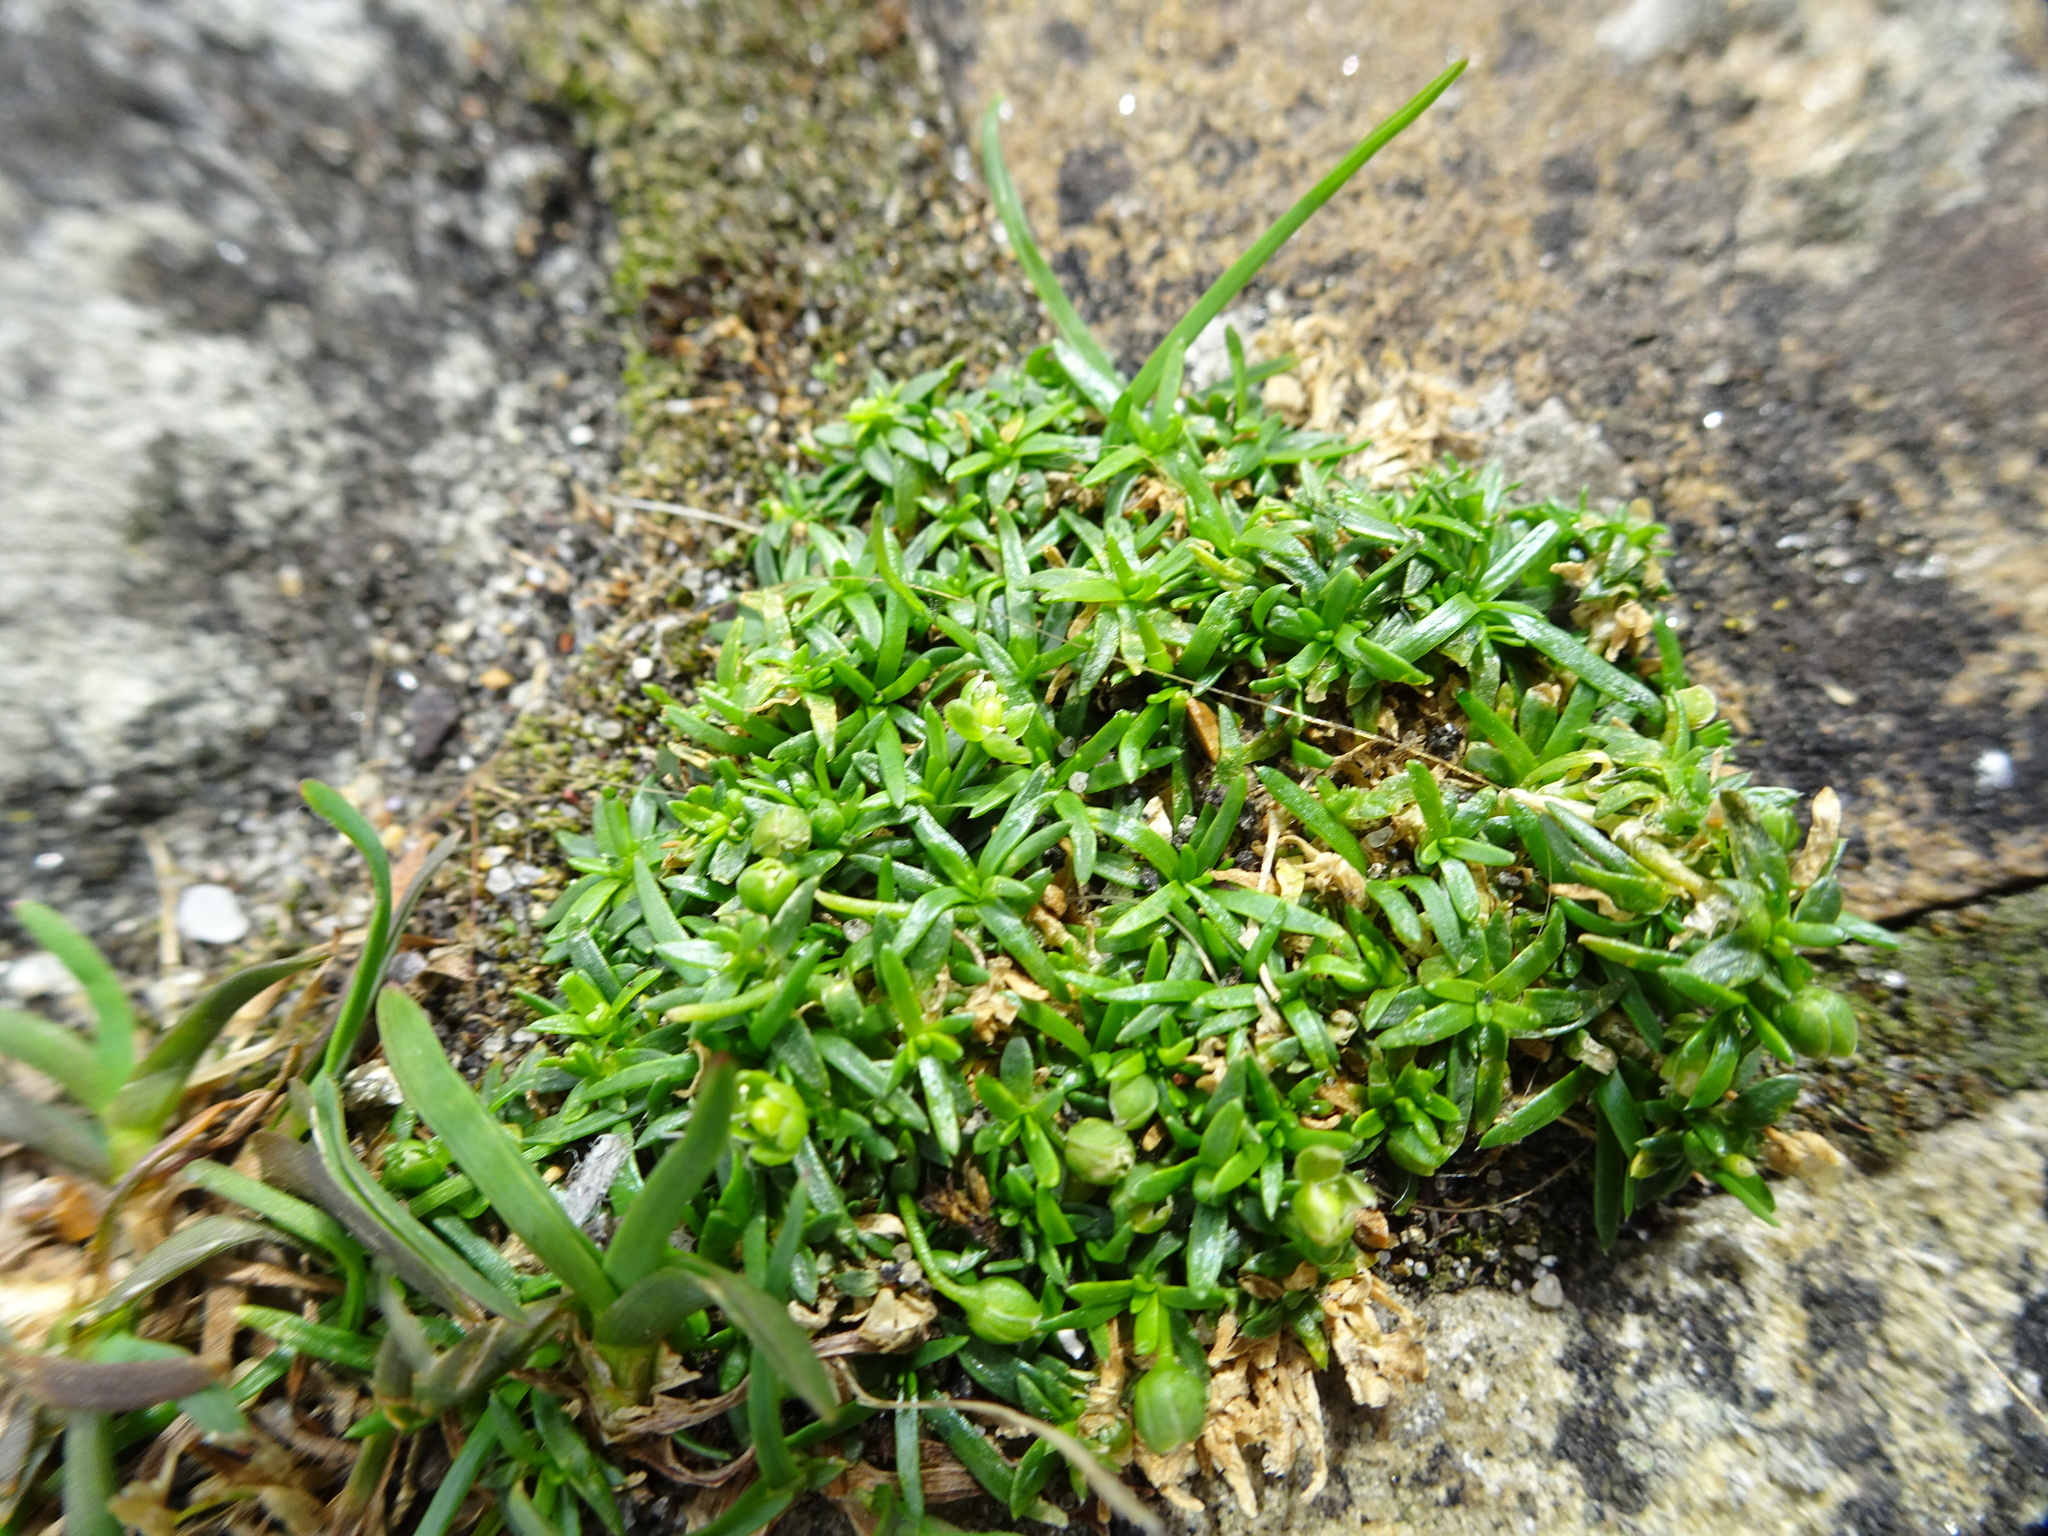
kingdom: Plantae
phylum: Tracheophyta
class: Magnoliopsida
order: Caryophyllales
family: Caryophyllaceae
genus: Sagina
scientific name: Sagina procumbens
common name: Procumbent pearlwort
